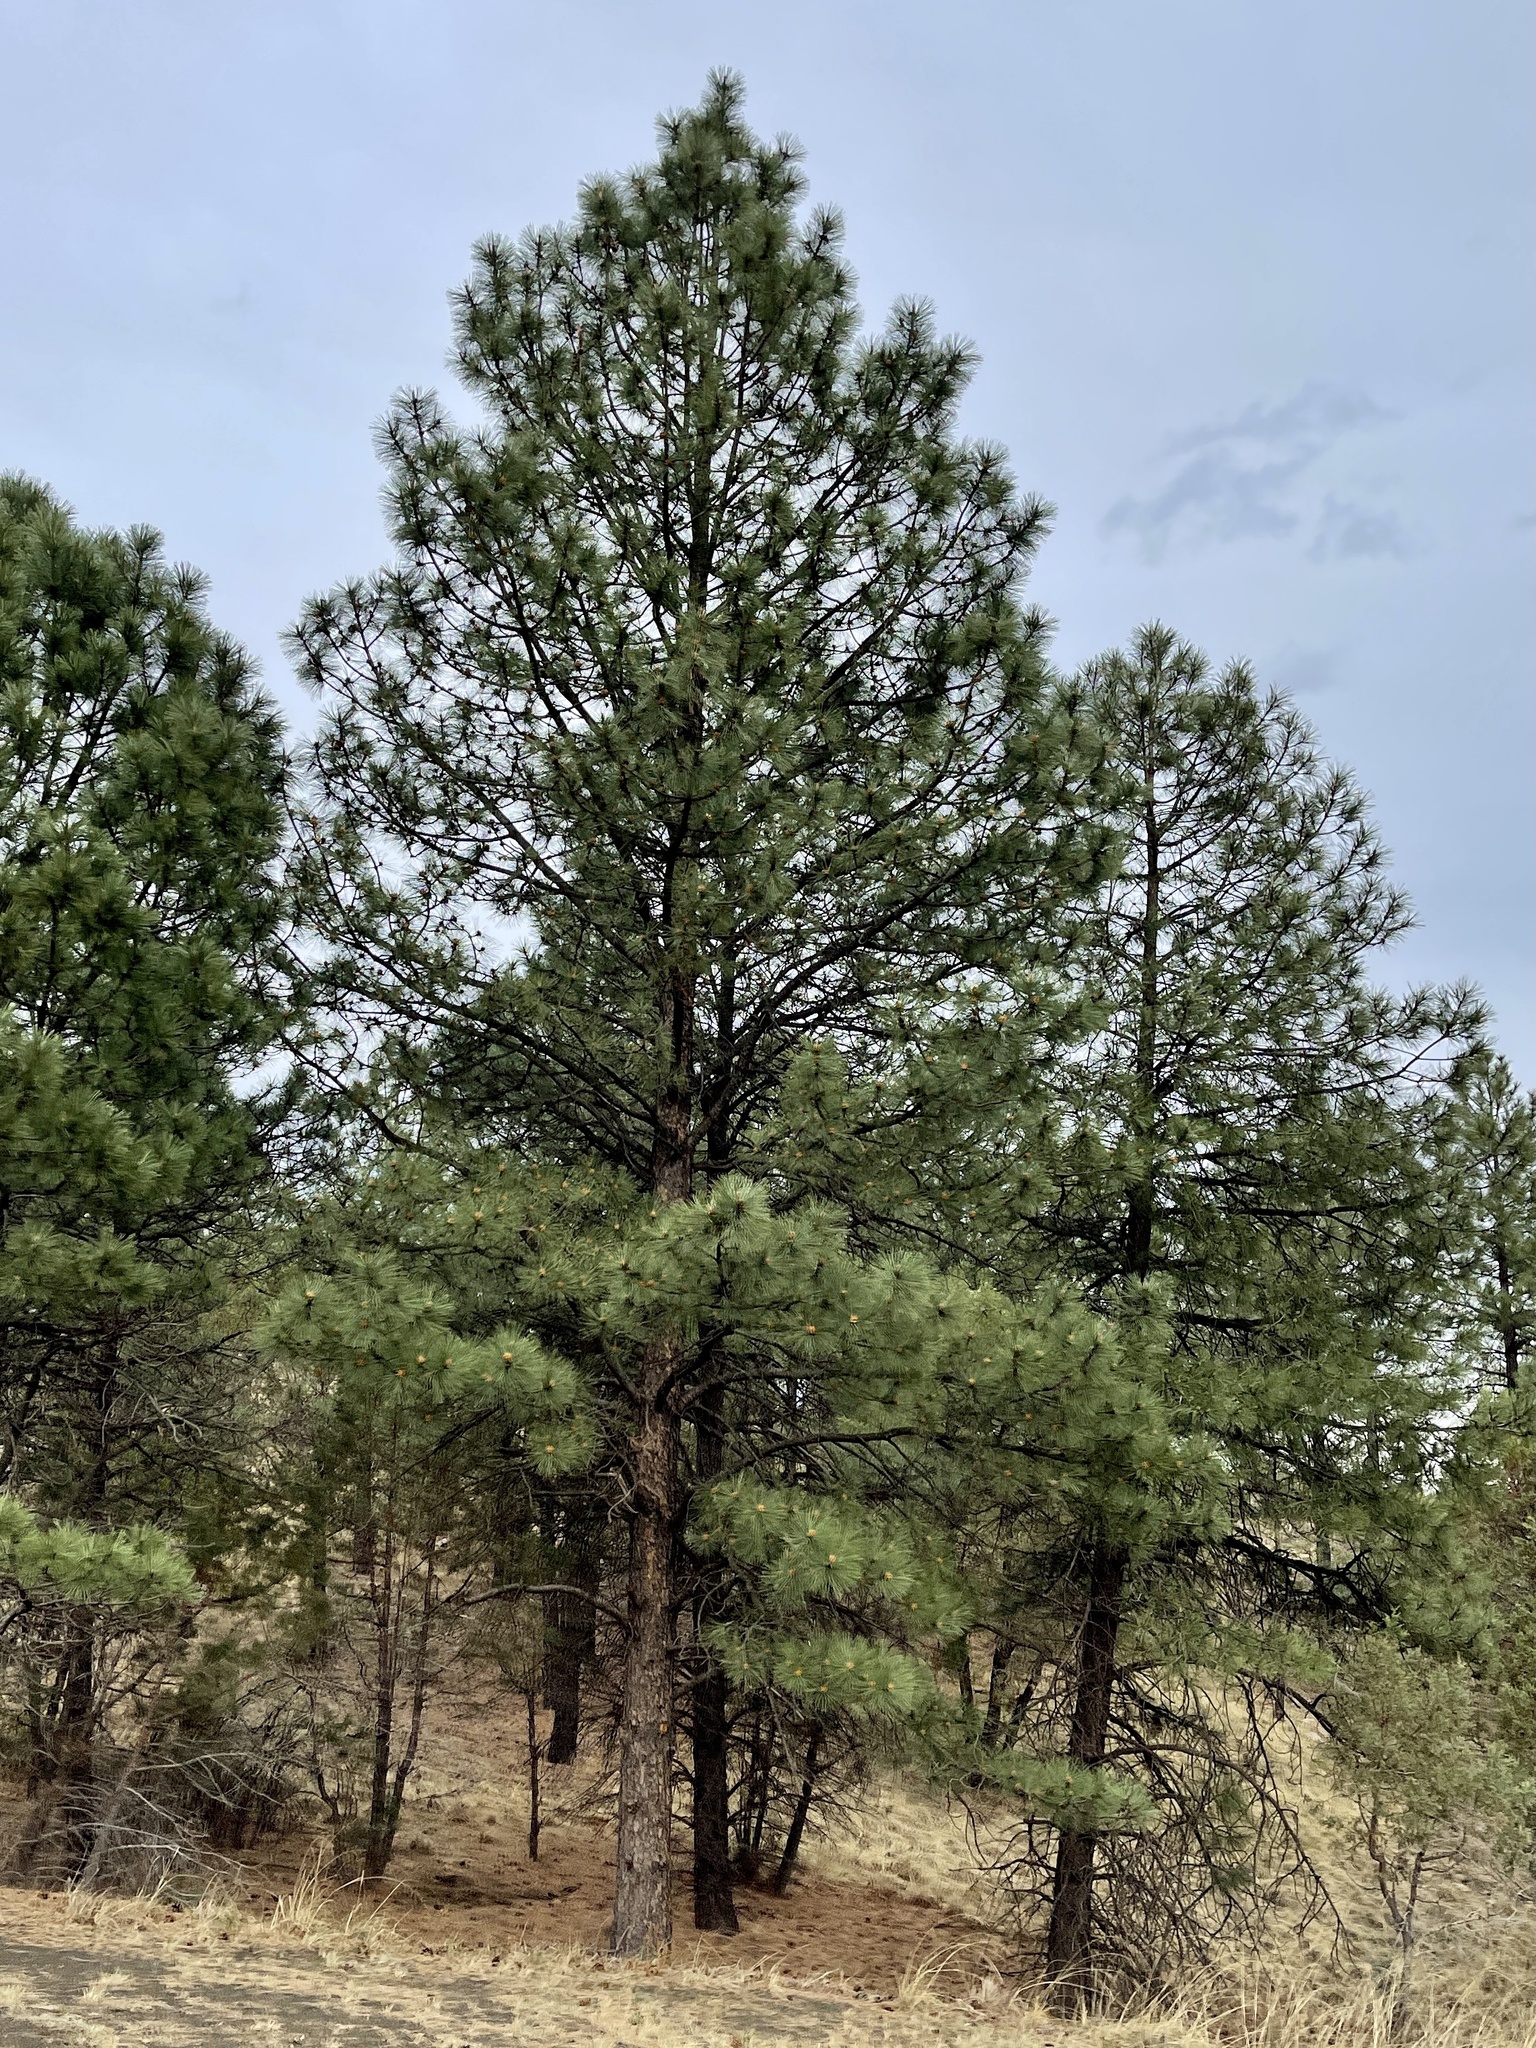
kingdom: Plantae
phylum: Tracheophyta
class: Pinopsida
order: Pinales
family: Pinaceae
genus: Pinus
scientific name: Pinus ponderosa
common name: Western yellow-pine
